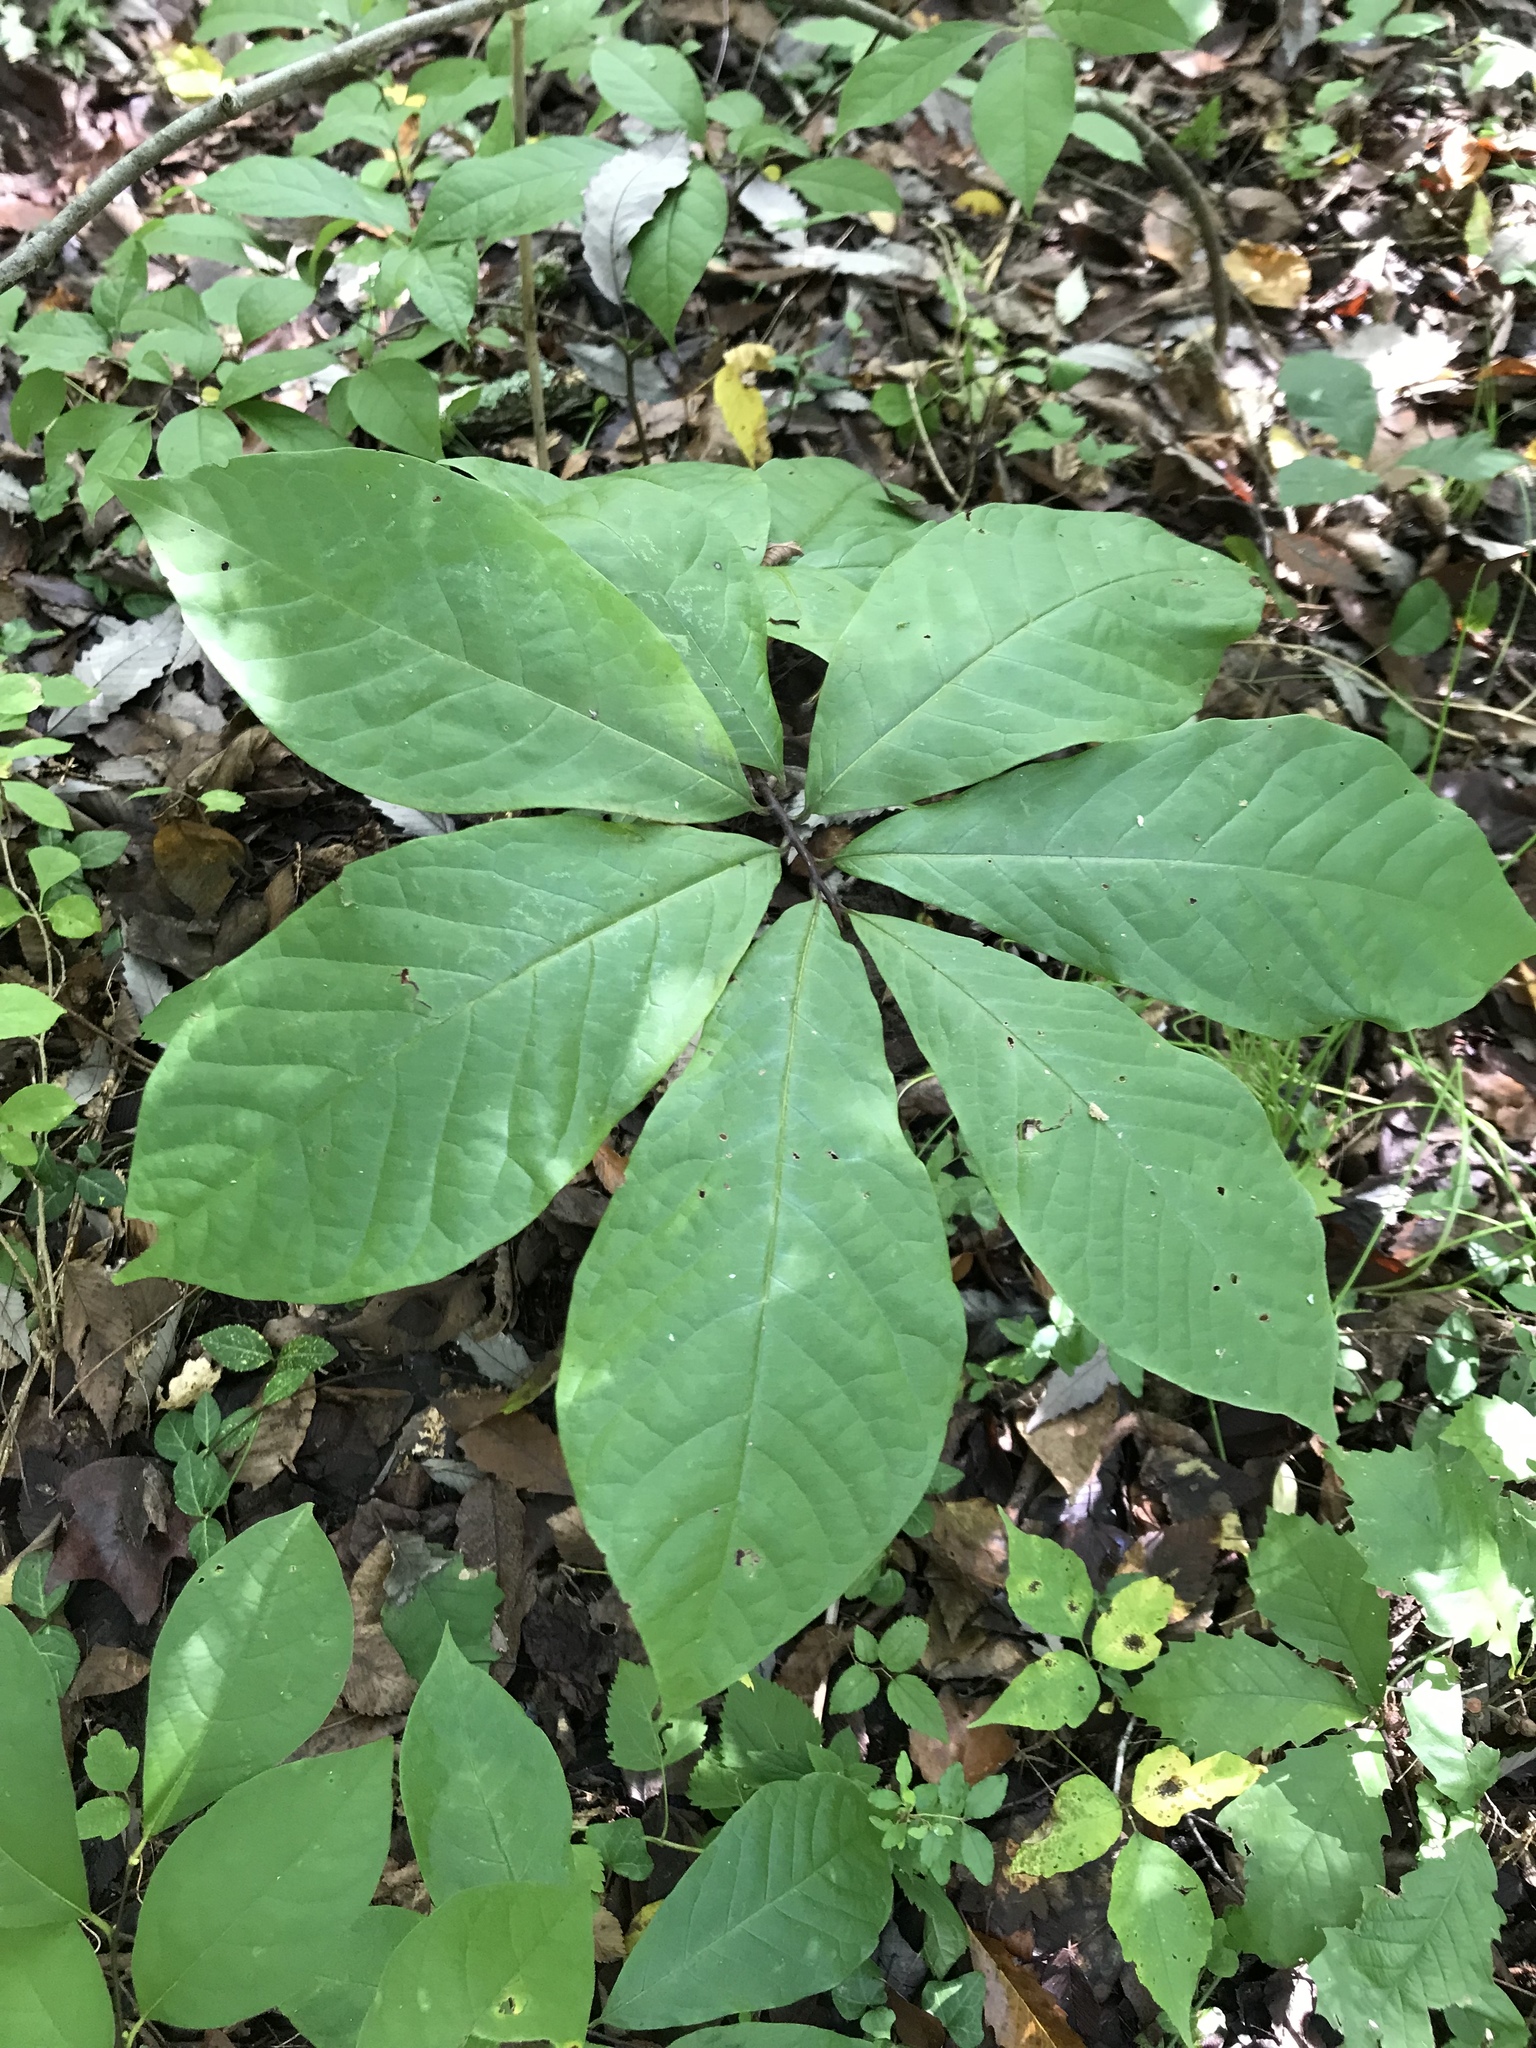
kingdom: Plantae
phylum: Tracheophyta
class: Magnoliopsida
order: Magnoliales
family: Annonaceae
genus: Asimina
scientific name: Asimina triloba
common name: Dog-banana
